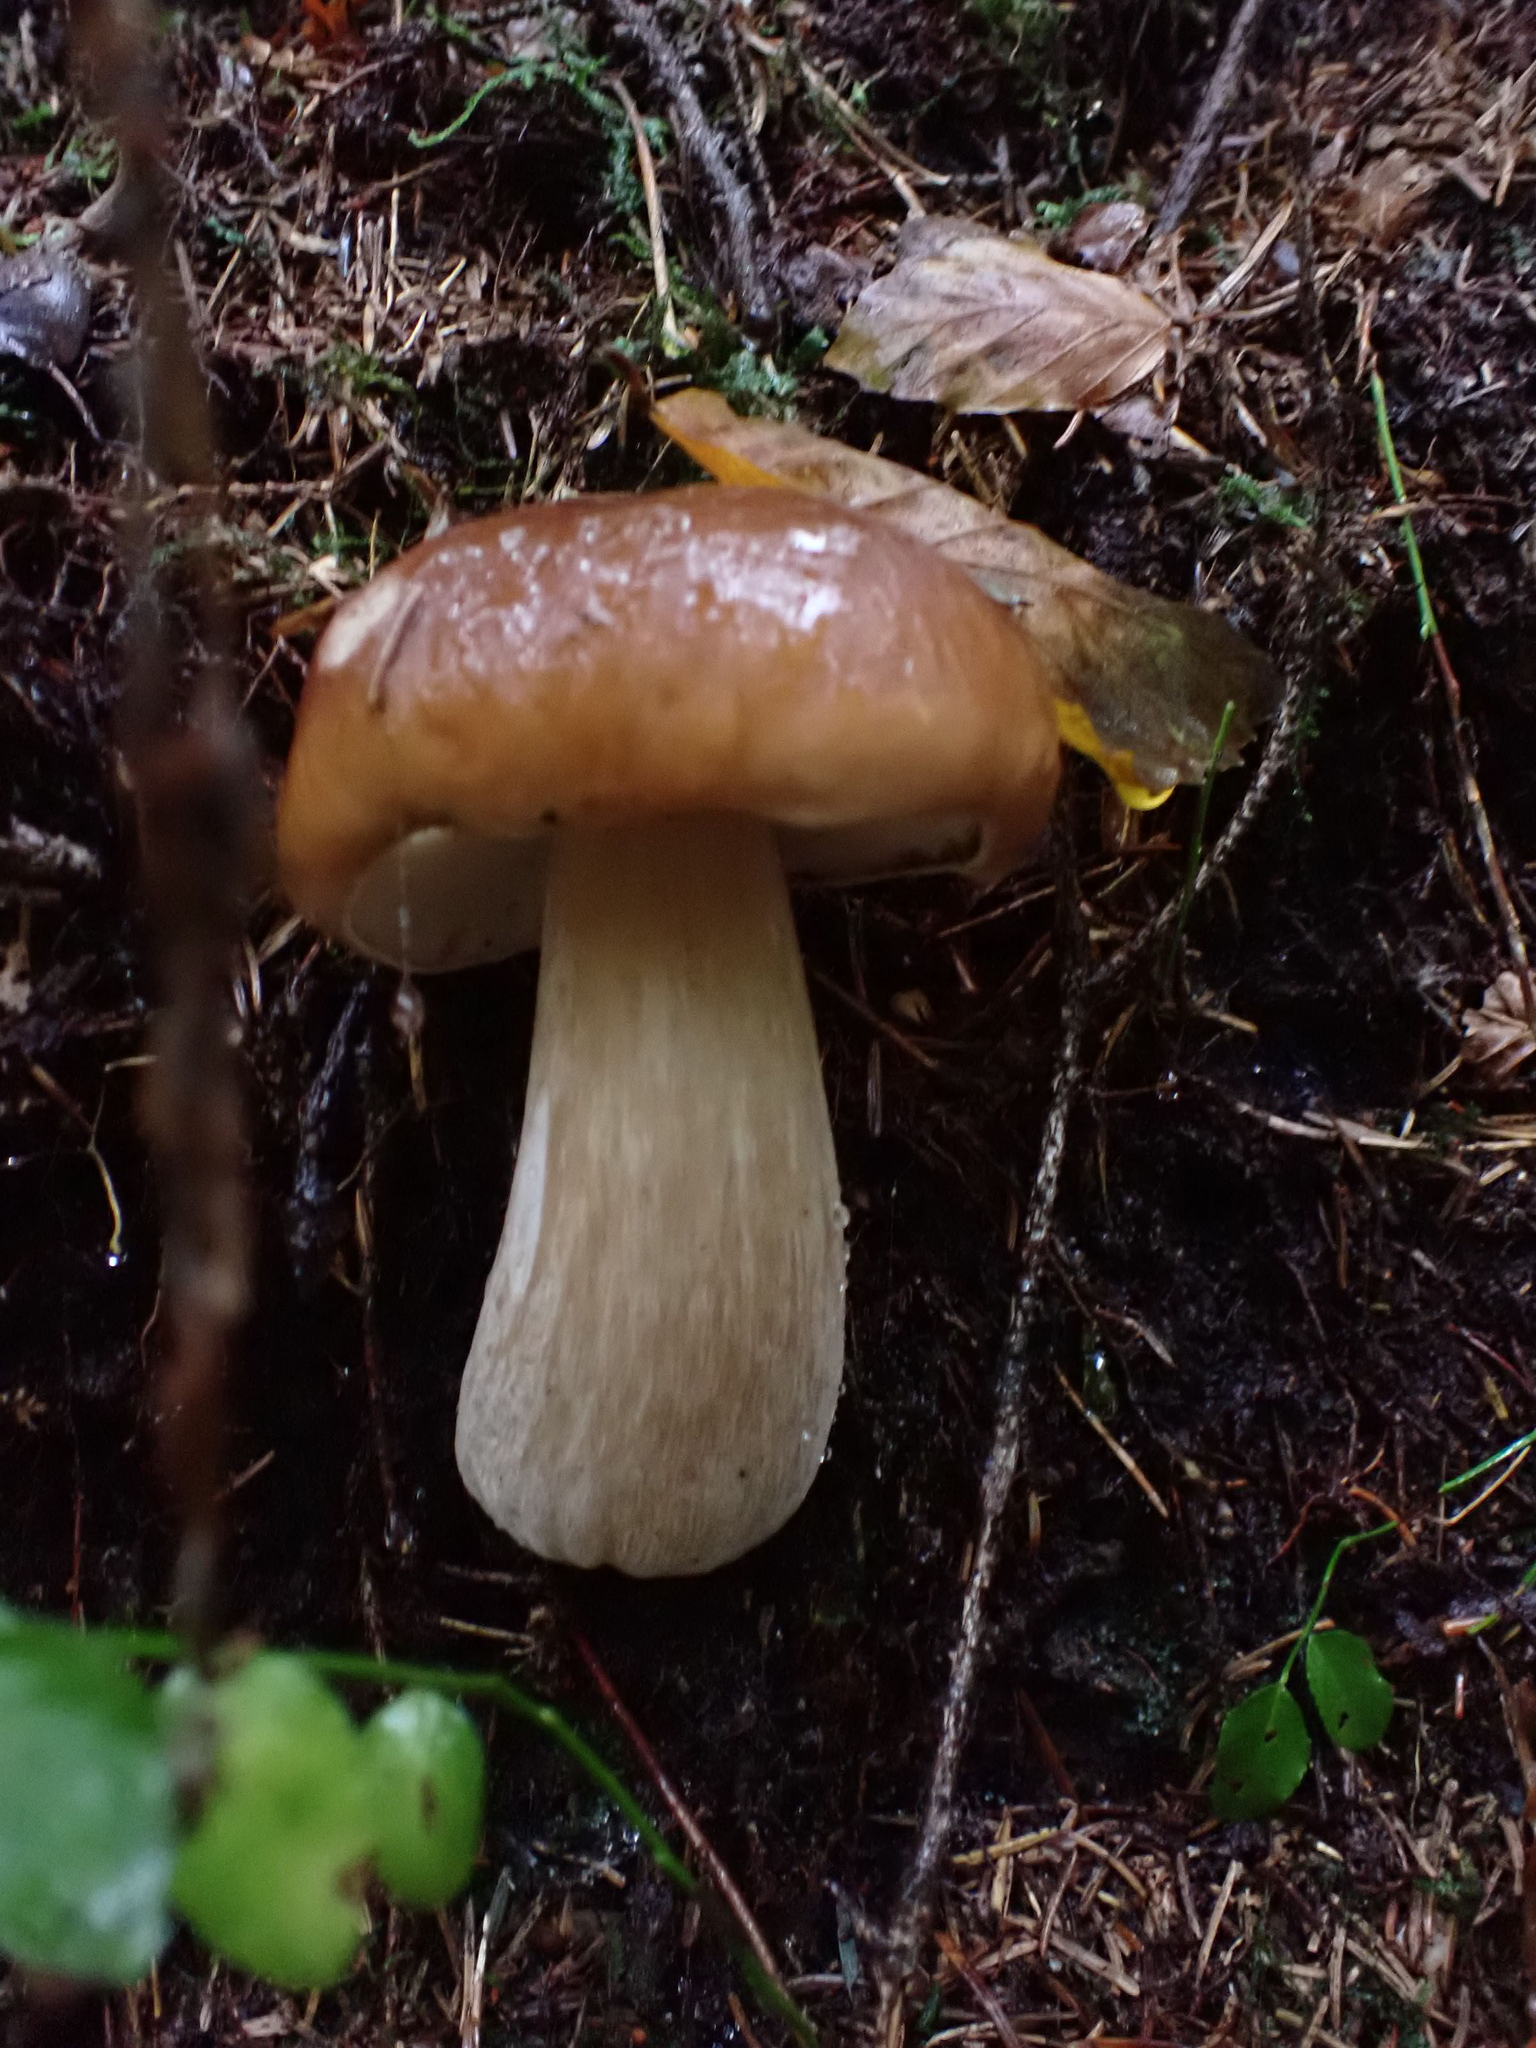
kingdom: Fungi
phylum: Basidiomycota
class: Agaricomycetes
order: Boletales
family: Boletaceae
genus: Boletus
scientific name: Boletus edulis
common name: Cep
